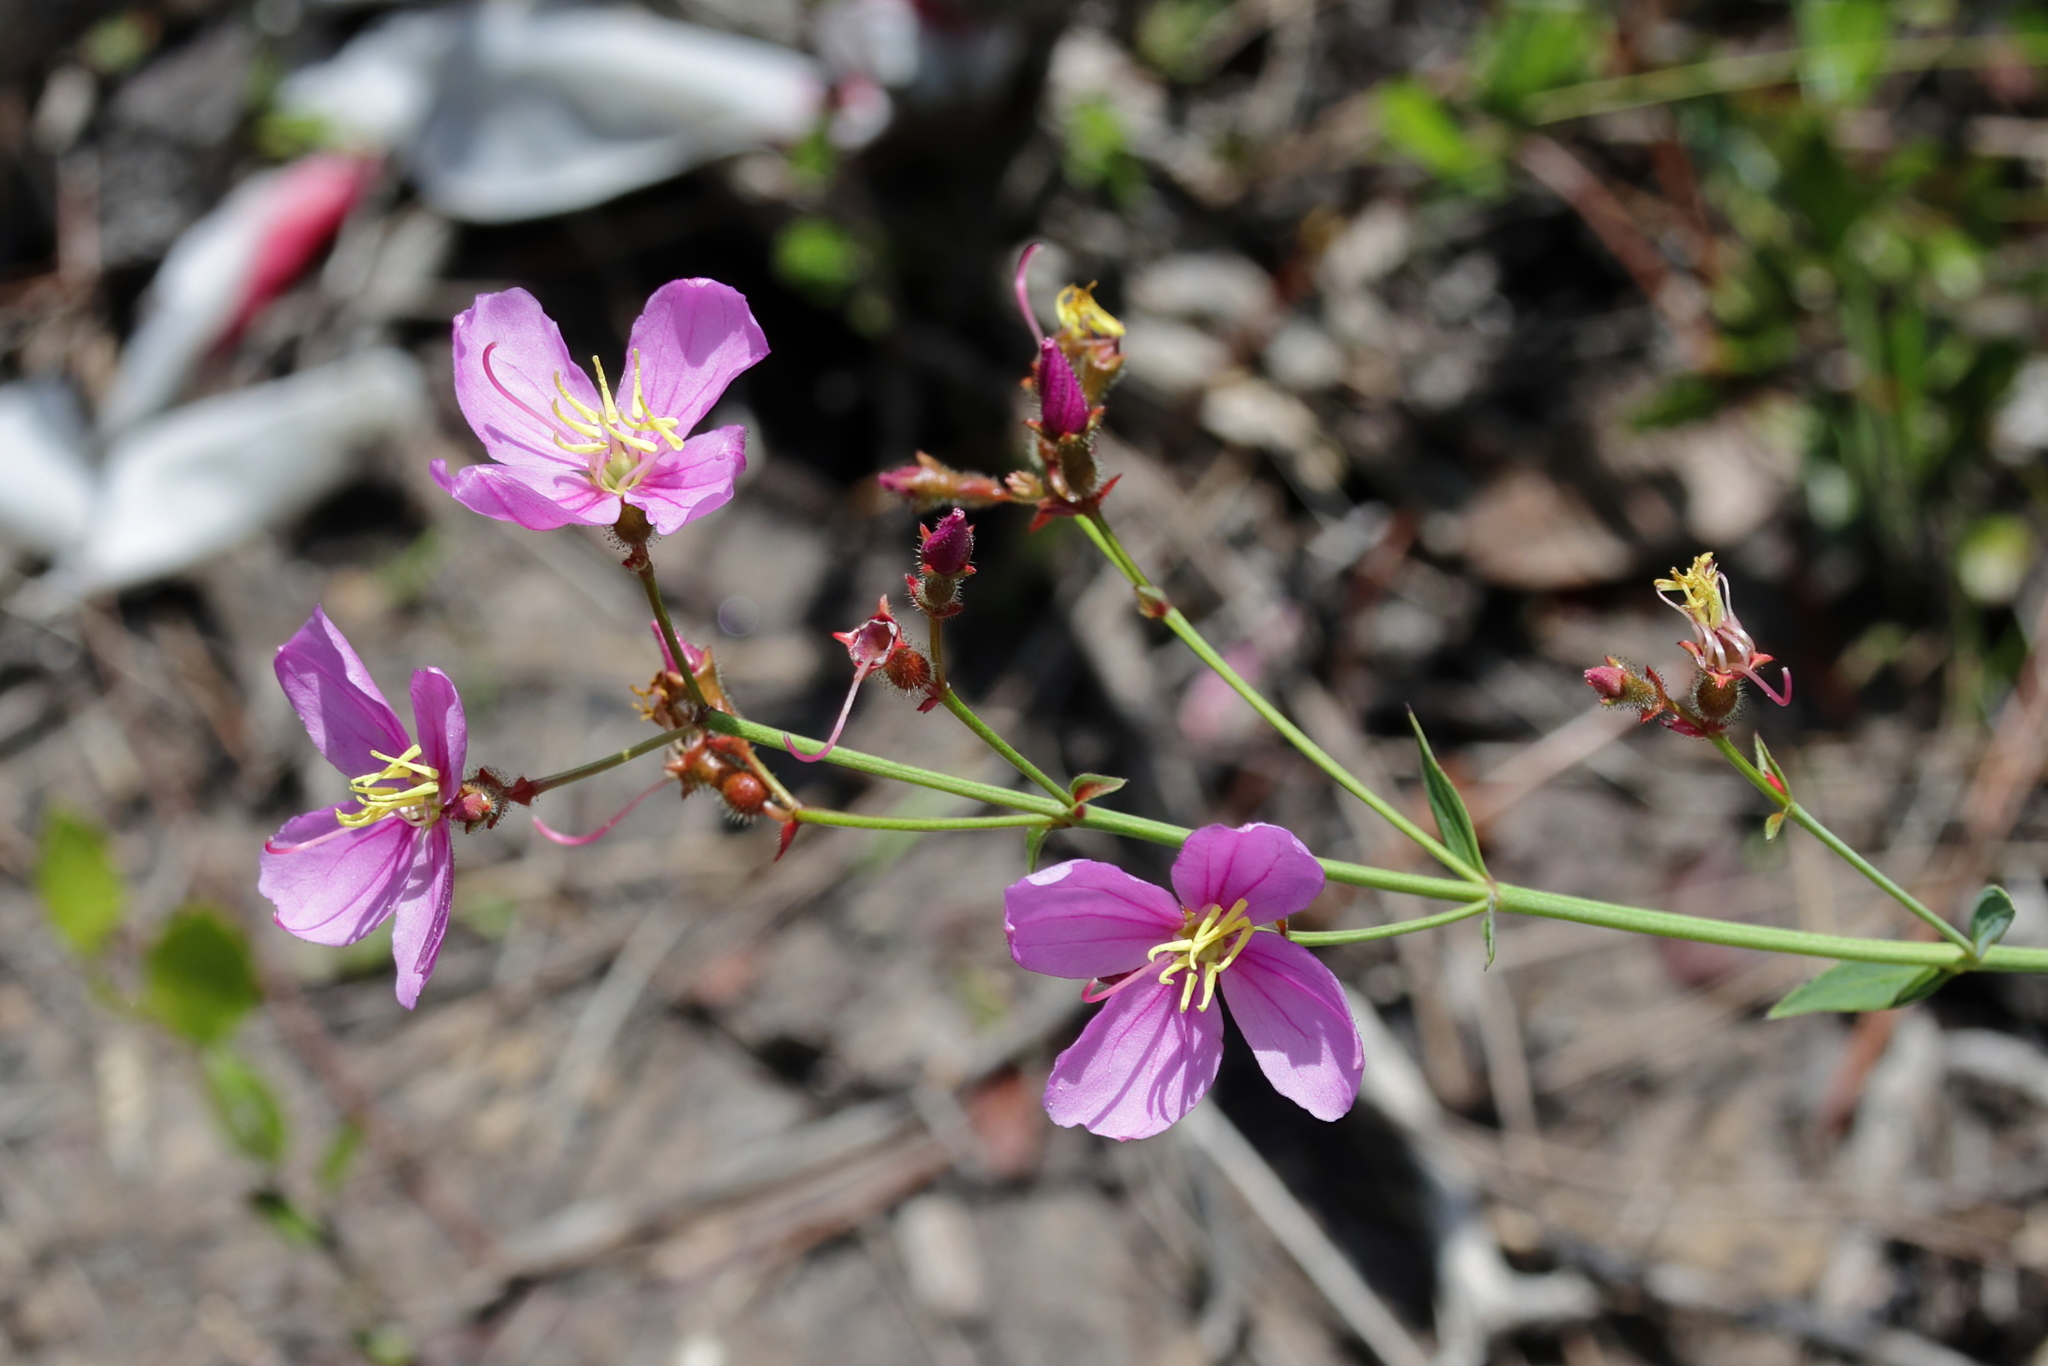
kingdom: Plantae
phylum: Tracheophyta
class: Magnoliopsida
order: Myrtales
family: Melastomataceae
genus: Rhexia
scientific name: Rhexia alifanus
